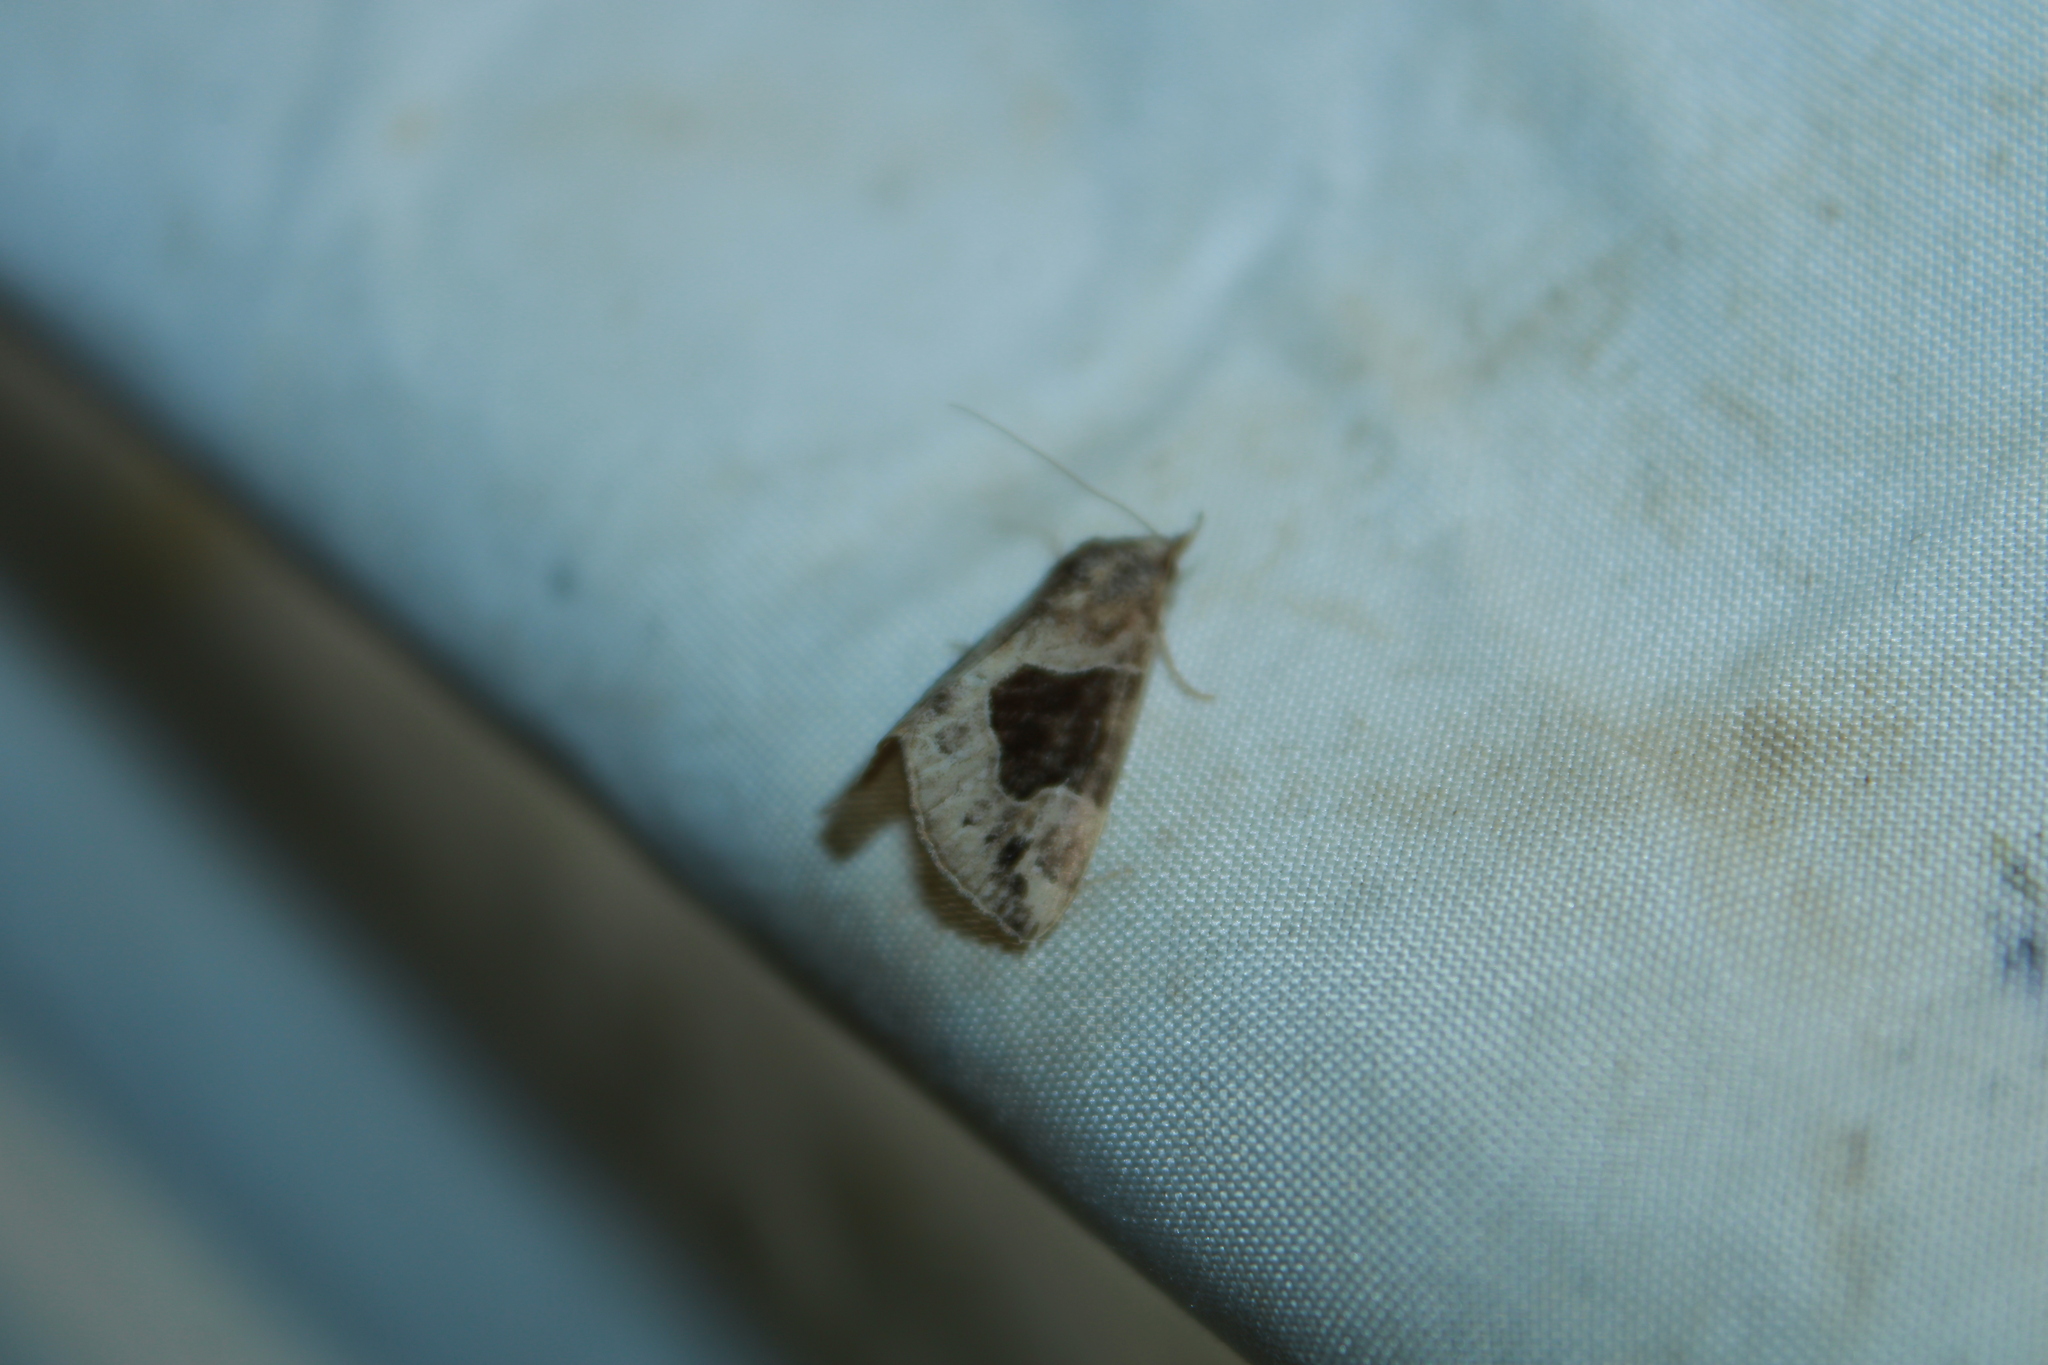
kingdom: Animalia
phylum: Arthropoda
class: Insecta
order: Lepidoptera
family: Erebidae
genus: Hypena
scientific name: Hypena manalis
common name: Flowing-line bomolocha moth
